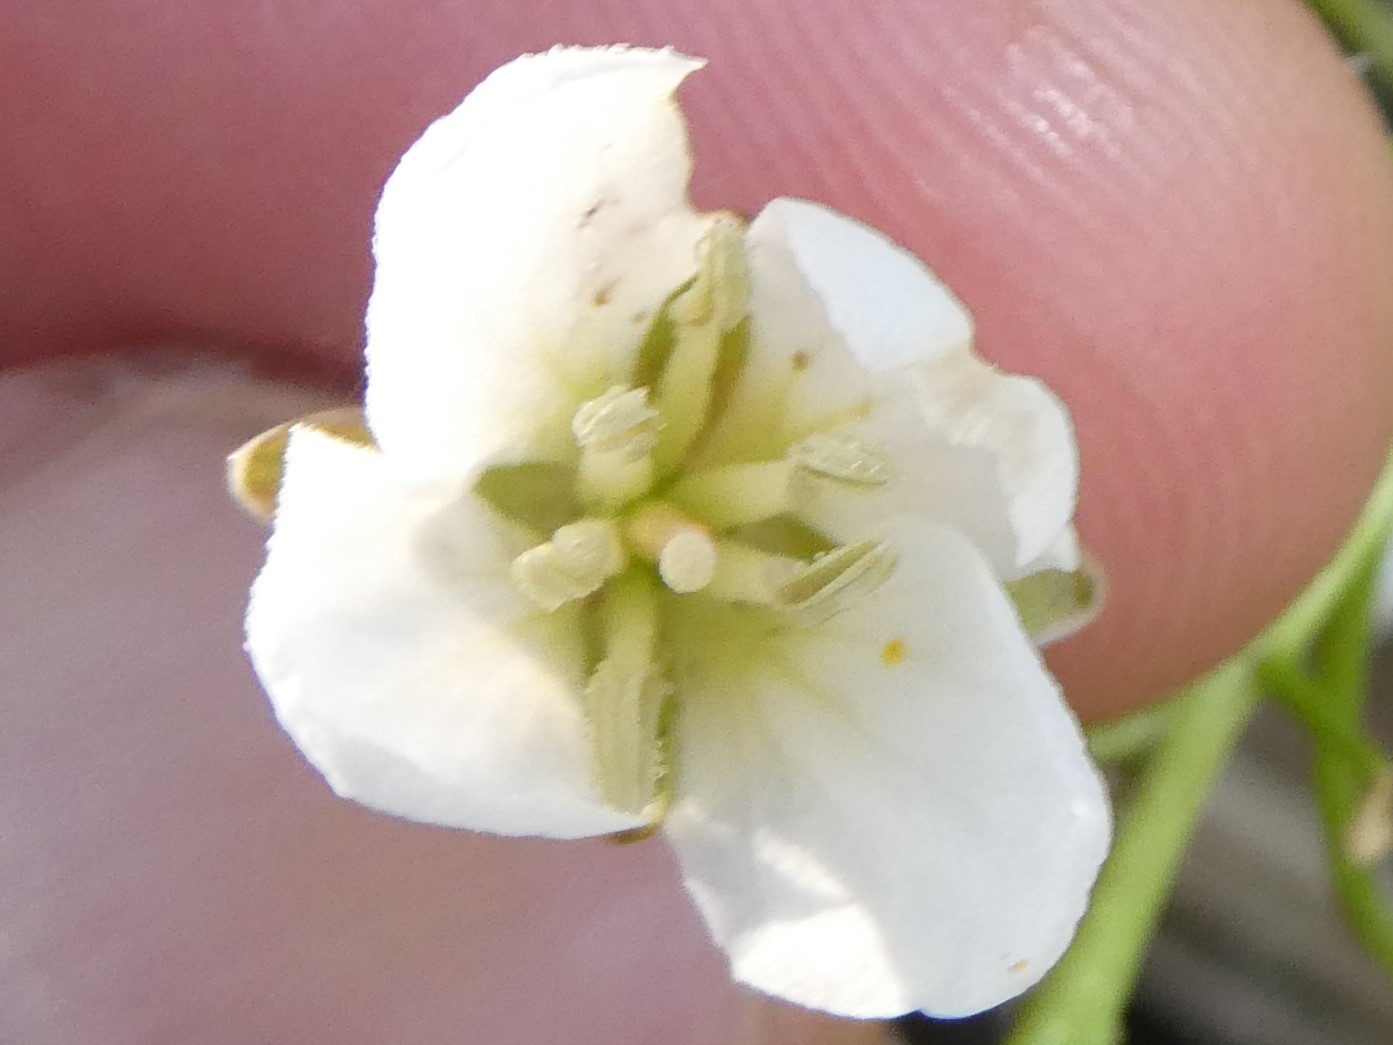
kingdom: Plantae
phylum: Tracheophyta
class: Magnoliopsida
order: Brassicales
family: Brassicaceae
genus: Cardamine
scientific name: Cardamine diphylla
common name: Broad-leaved toothwort
